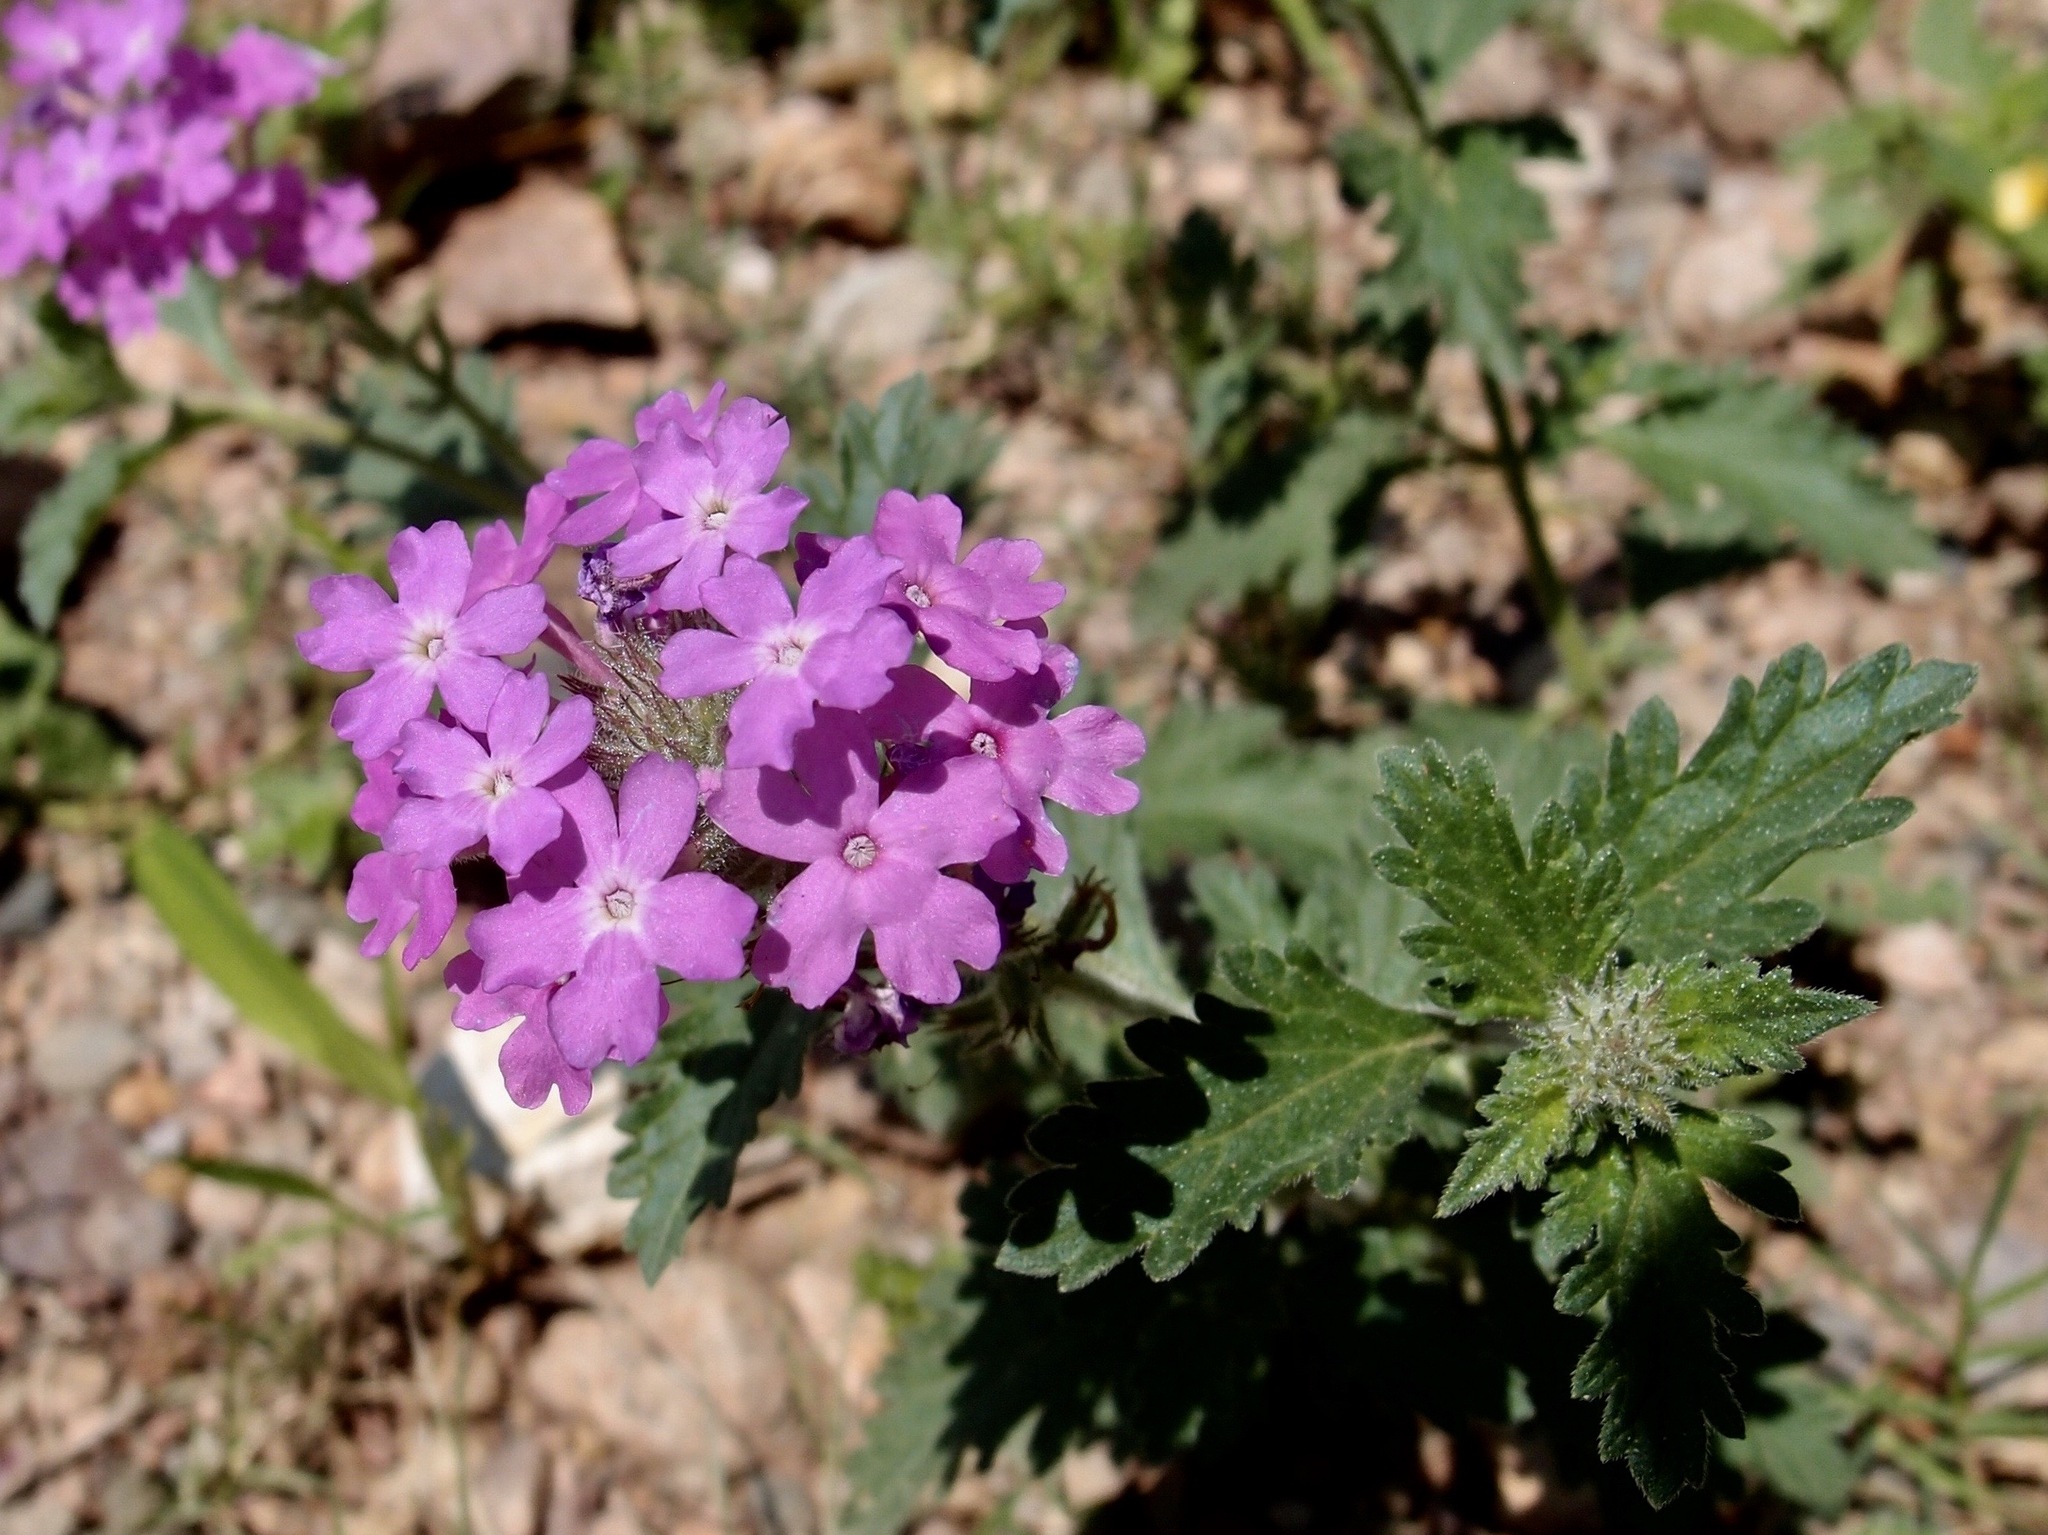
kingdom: Plantae
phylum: Tracheophyta
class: Magnoliopsida
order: Lamiales
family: Verbenaceae
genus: Verbena
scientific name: Verbena gooddingii
